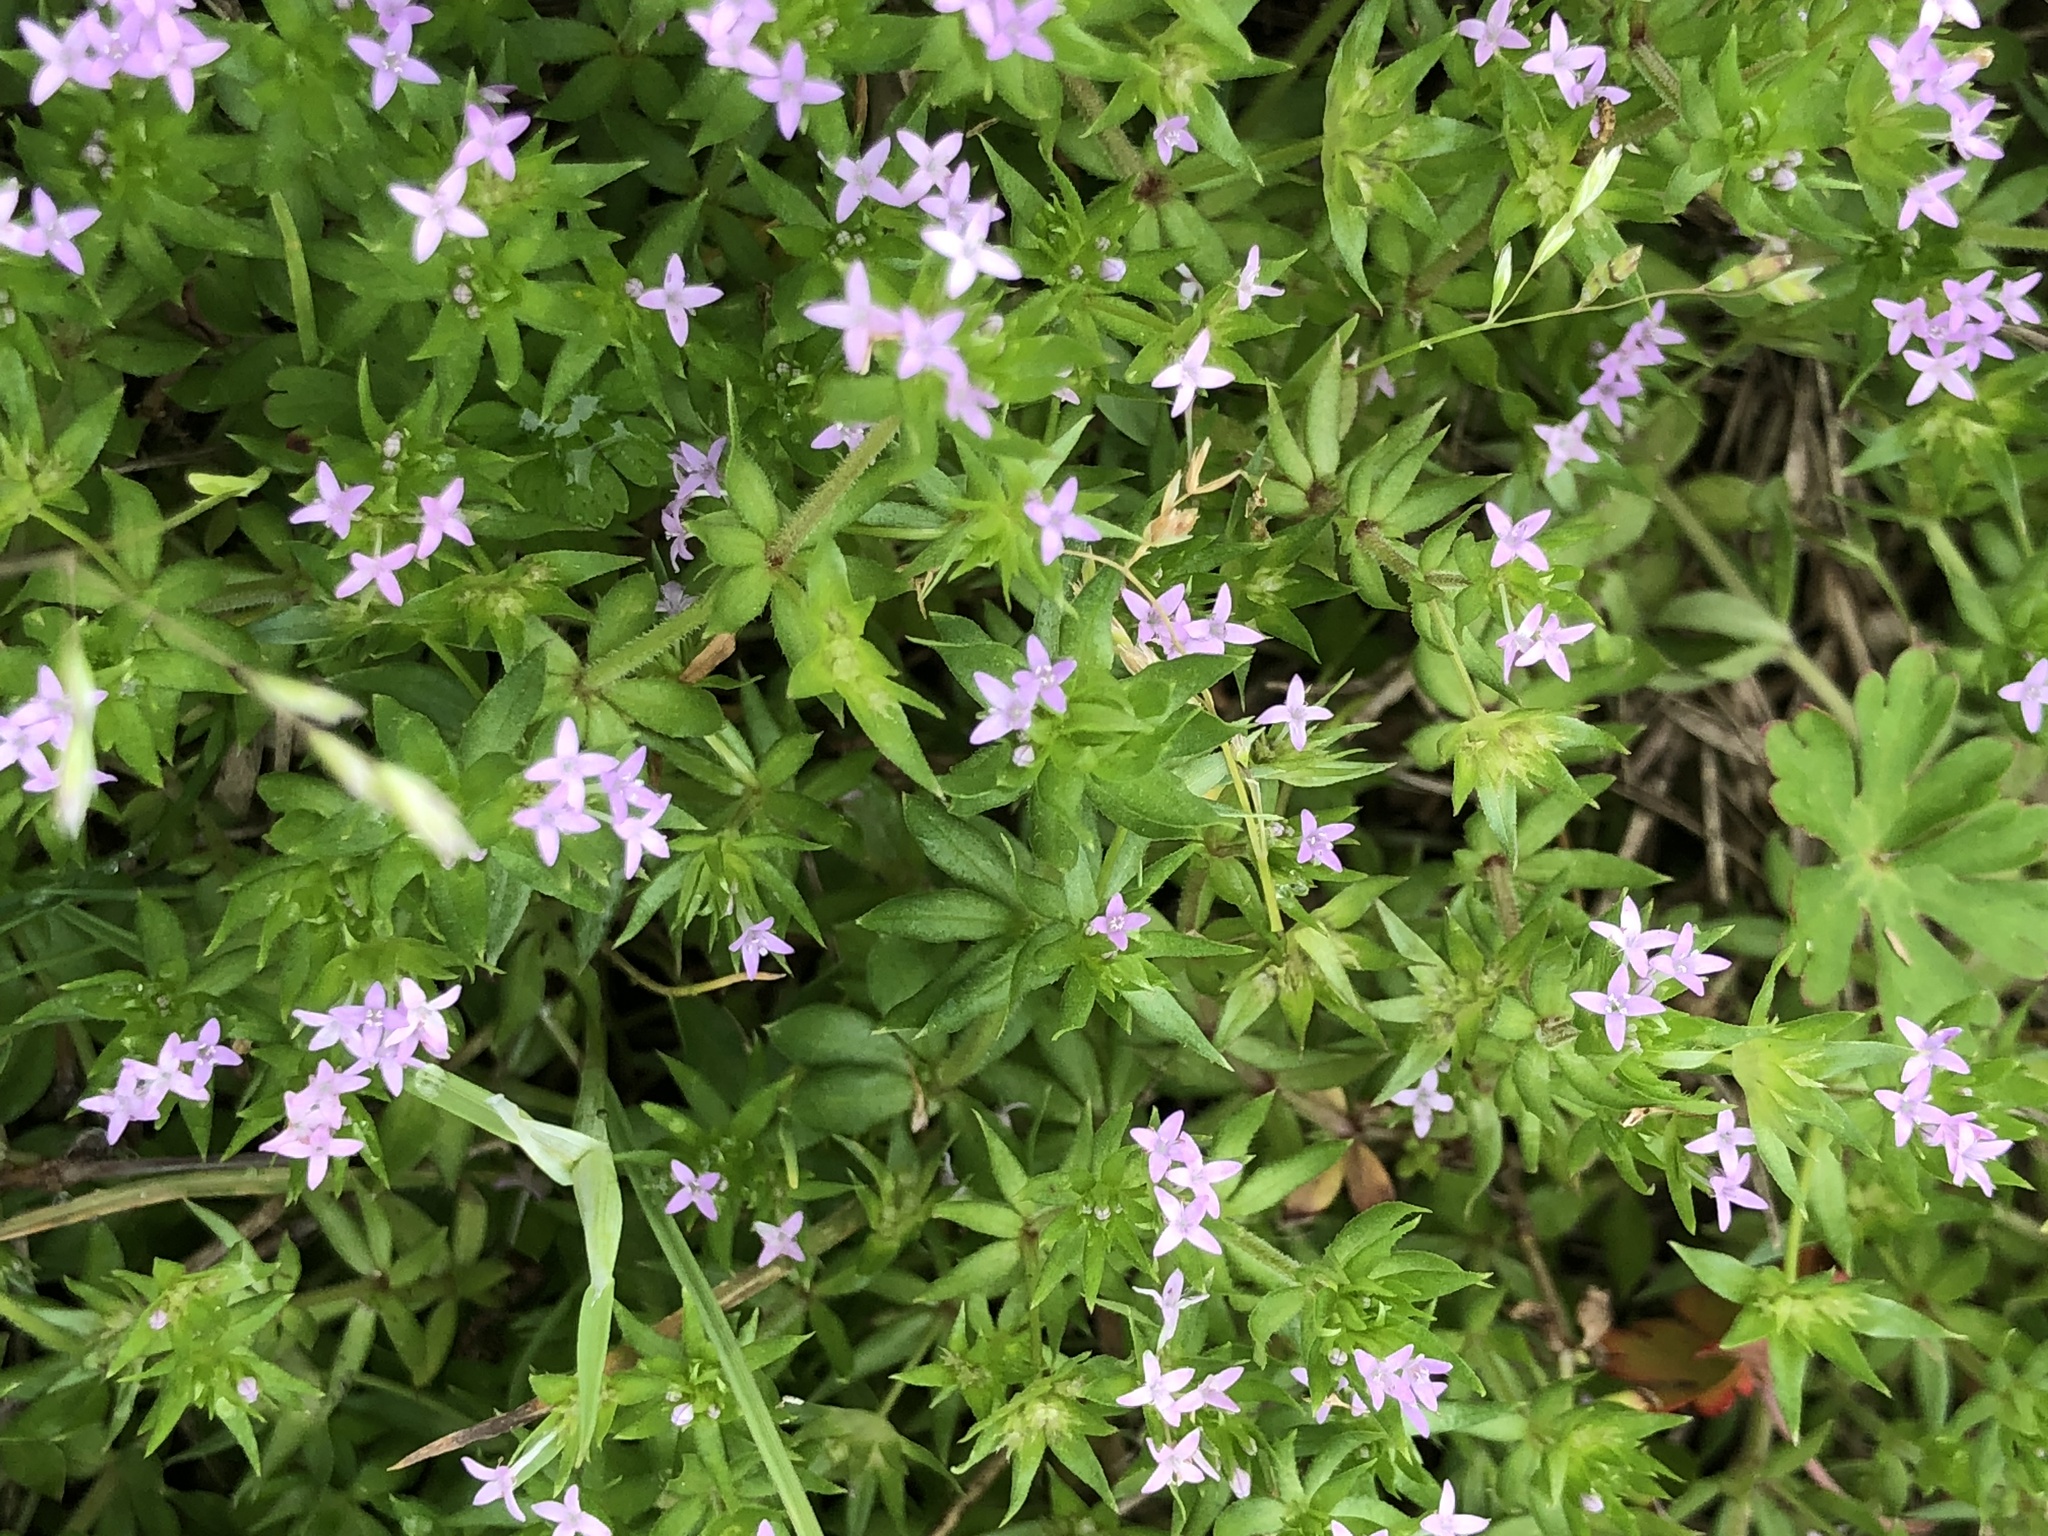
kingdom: Plantae
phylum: Tracheophyta
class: Magnoliopsida
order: Gentianales
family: Rubiaceae
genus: Sherardia
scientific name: Sherardia arvensis
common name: Field madder
